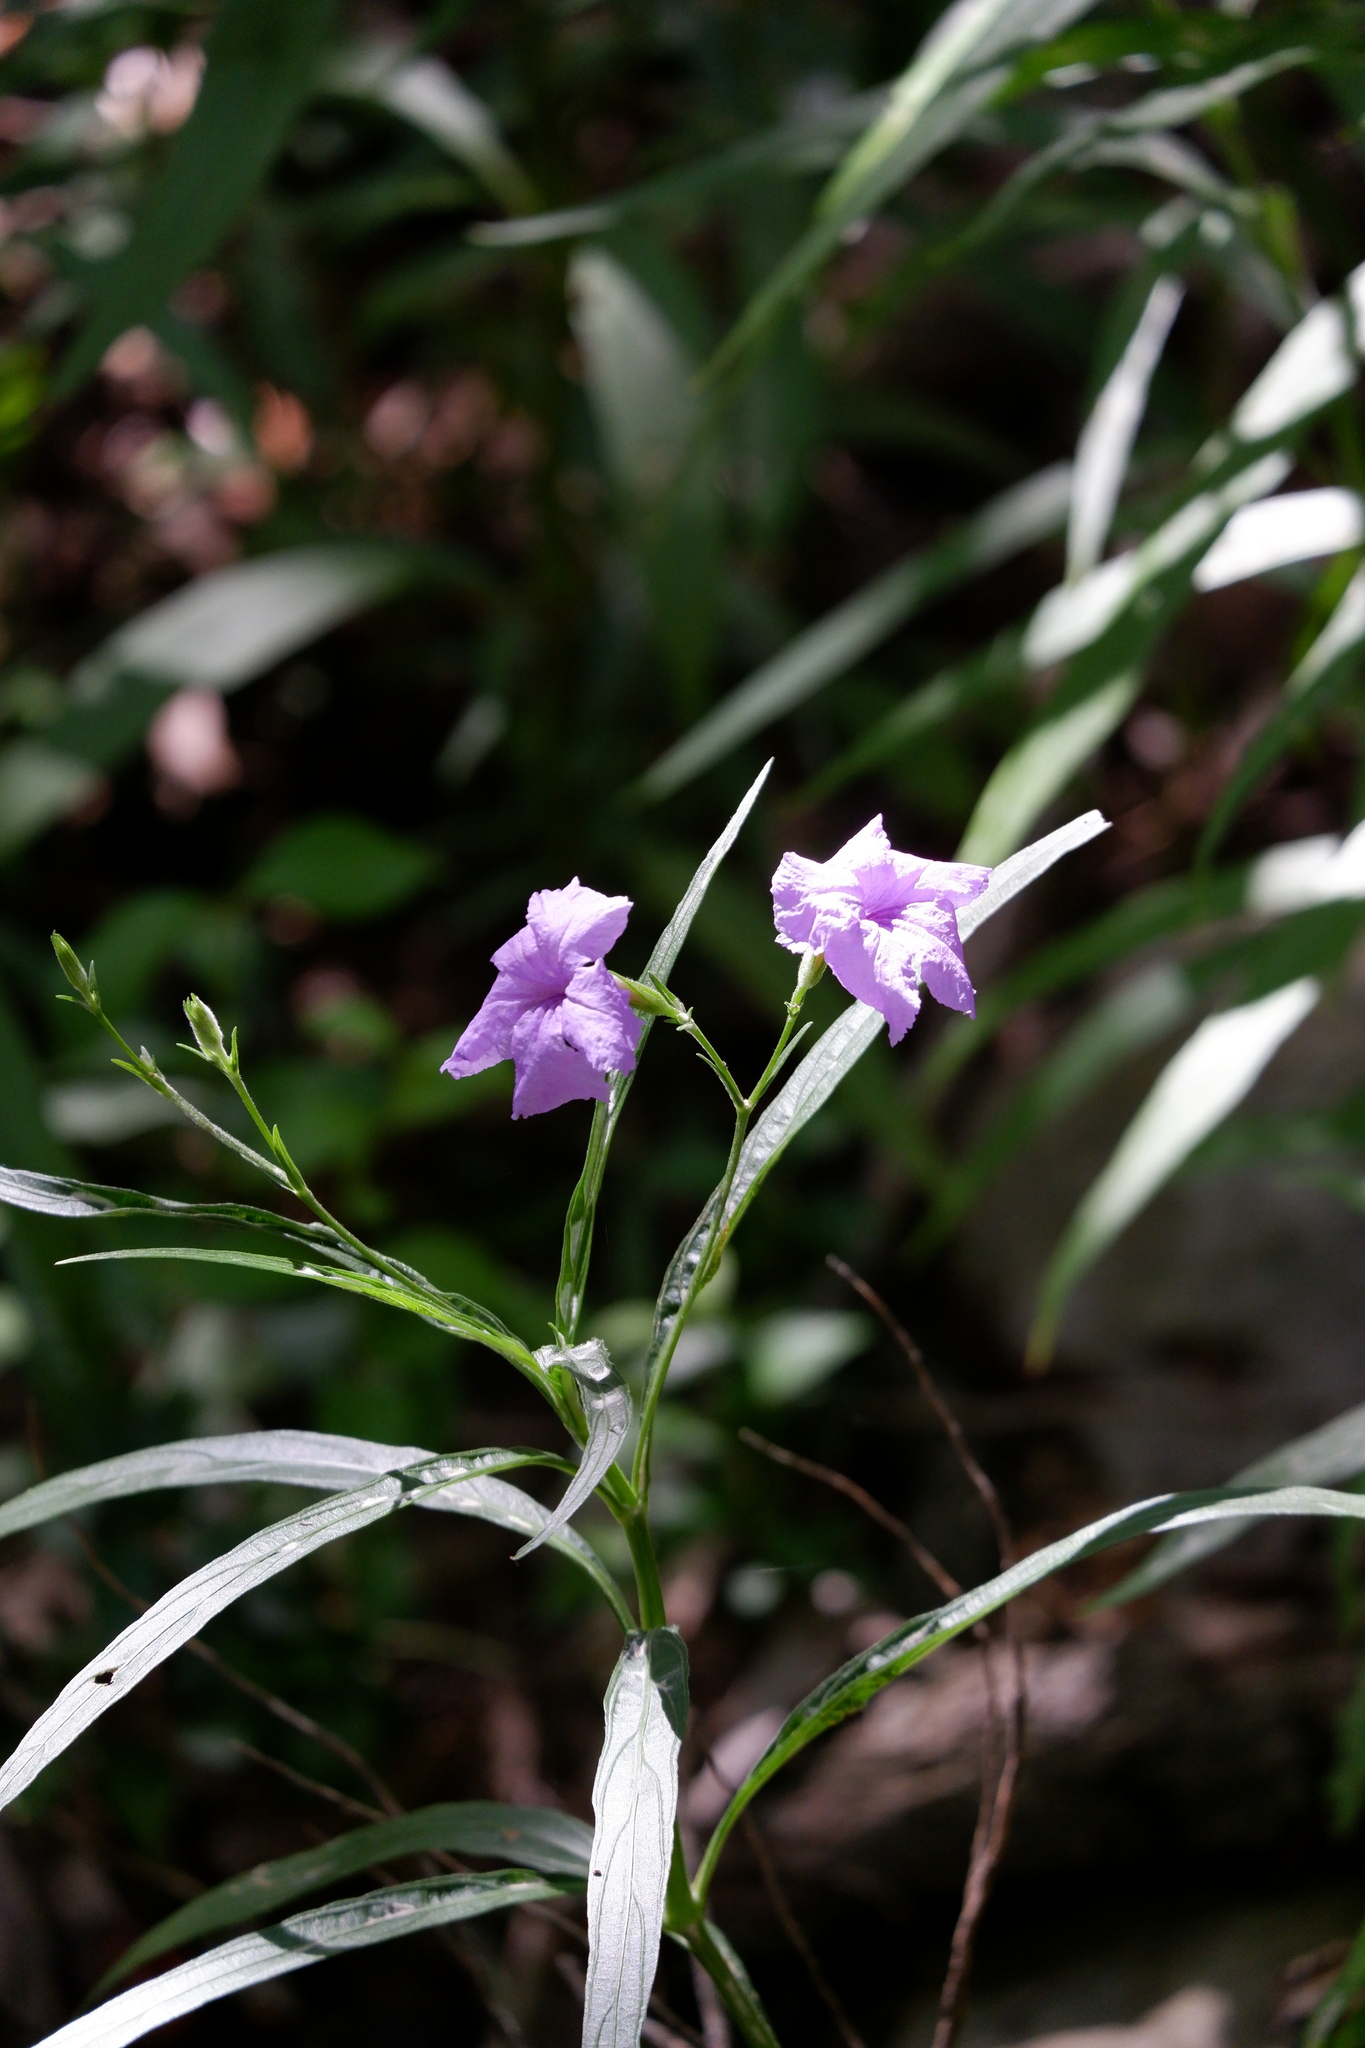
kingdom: Plantae
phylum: Tracheophyta
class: Magnoliopsida
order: Lamiales
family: Acanthaceae
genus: Ruellia
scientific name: Ruellia simplex
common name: Softseed wild petunia
